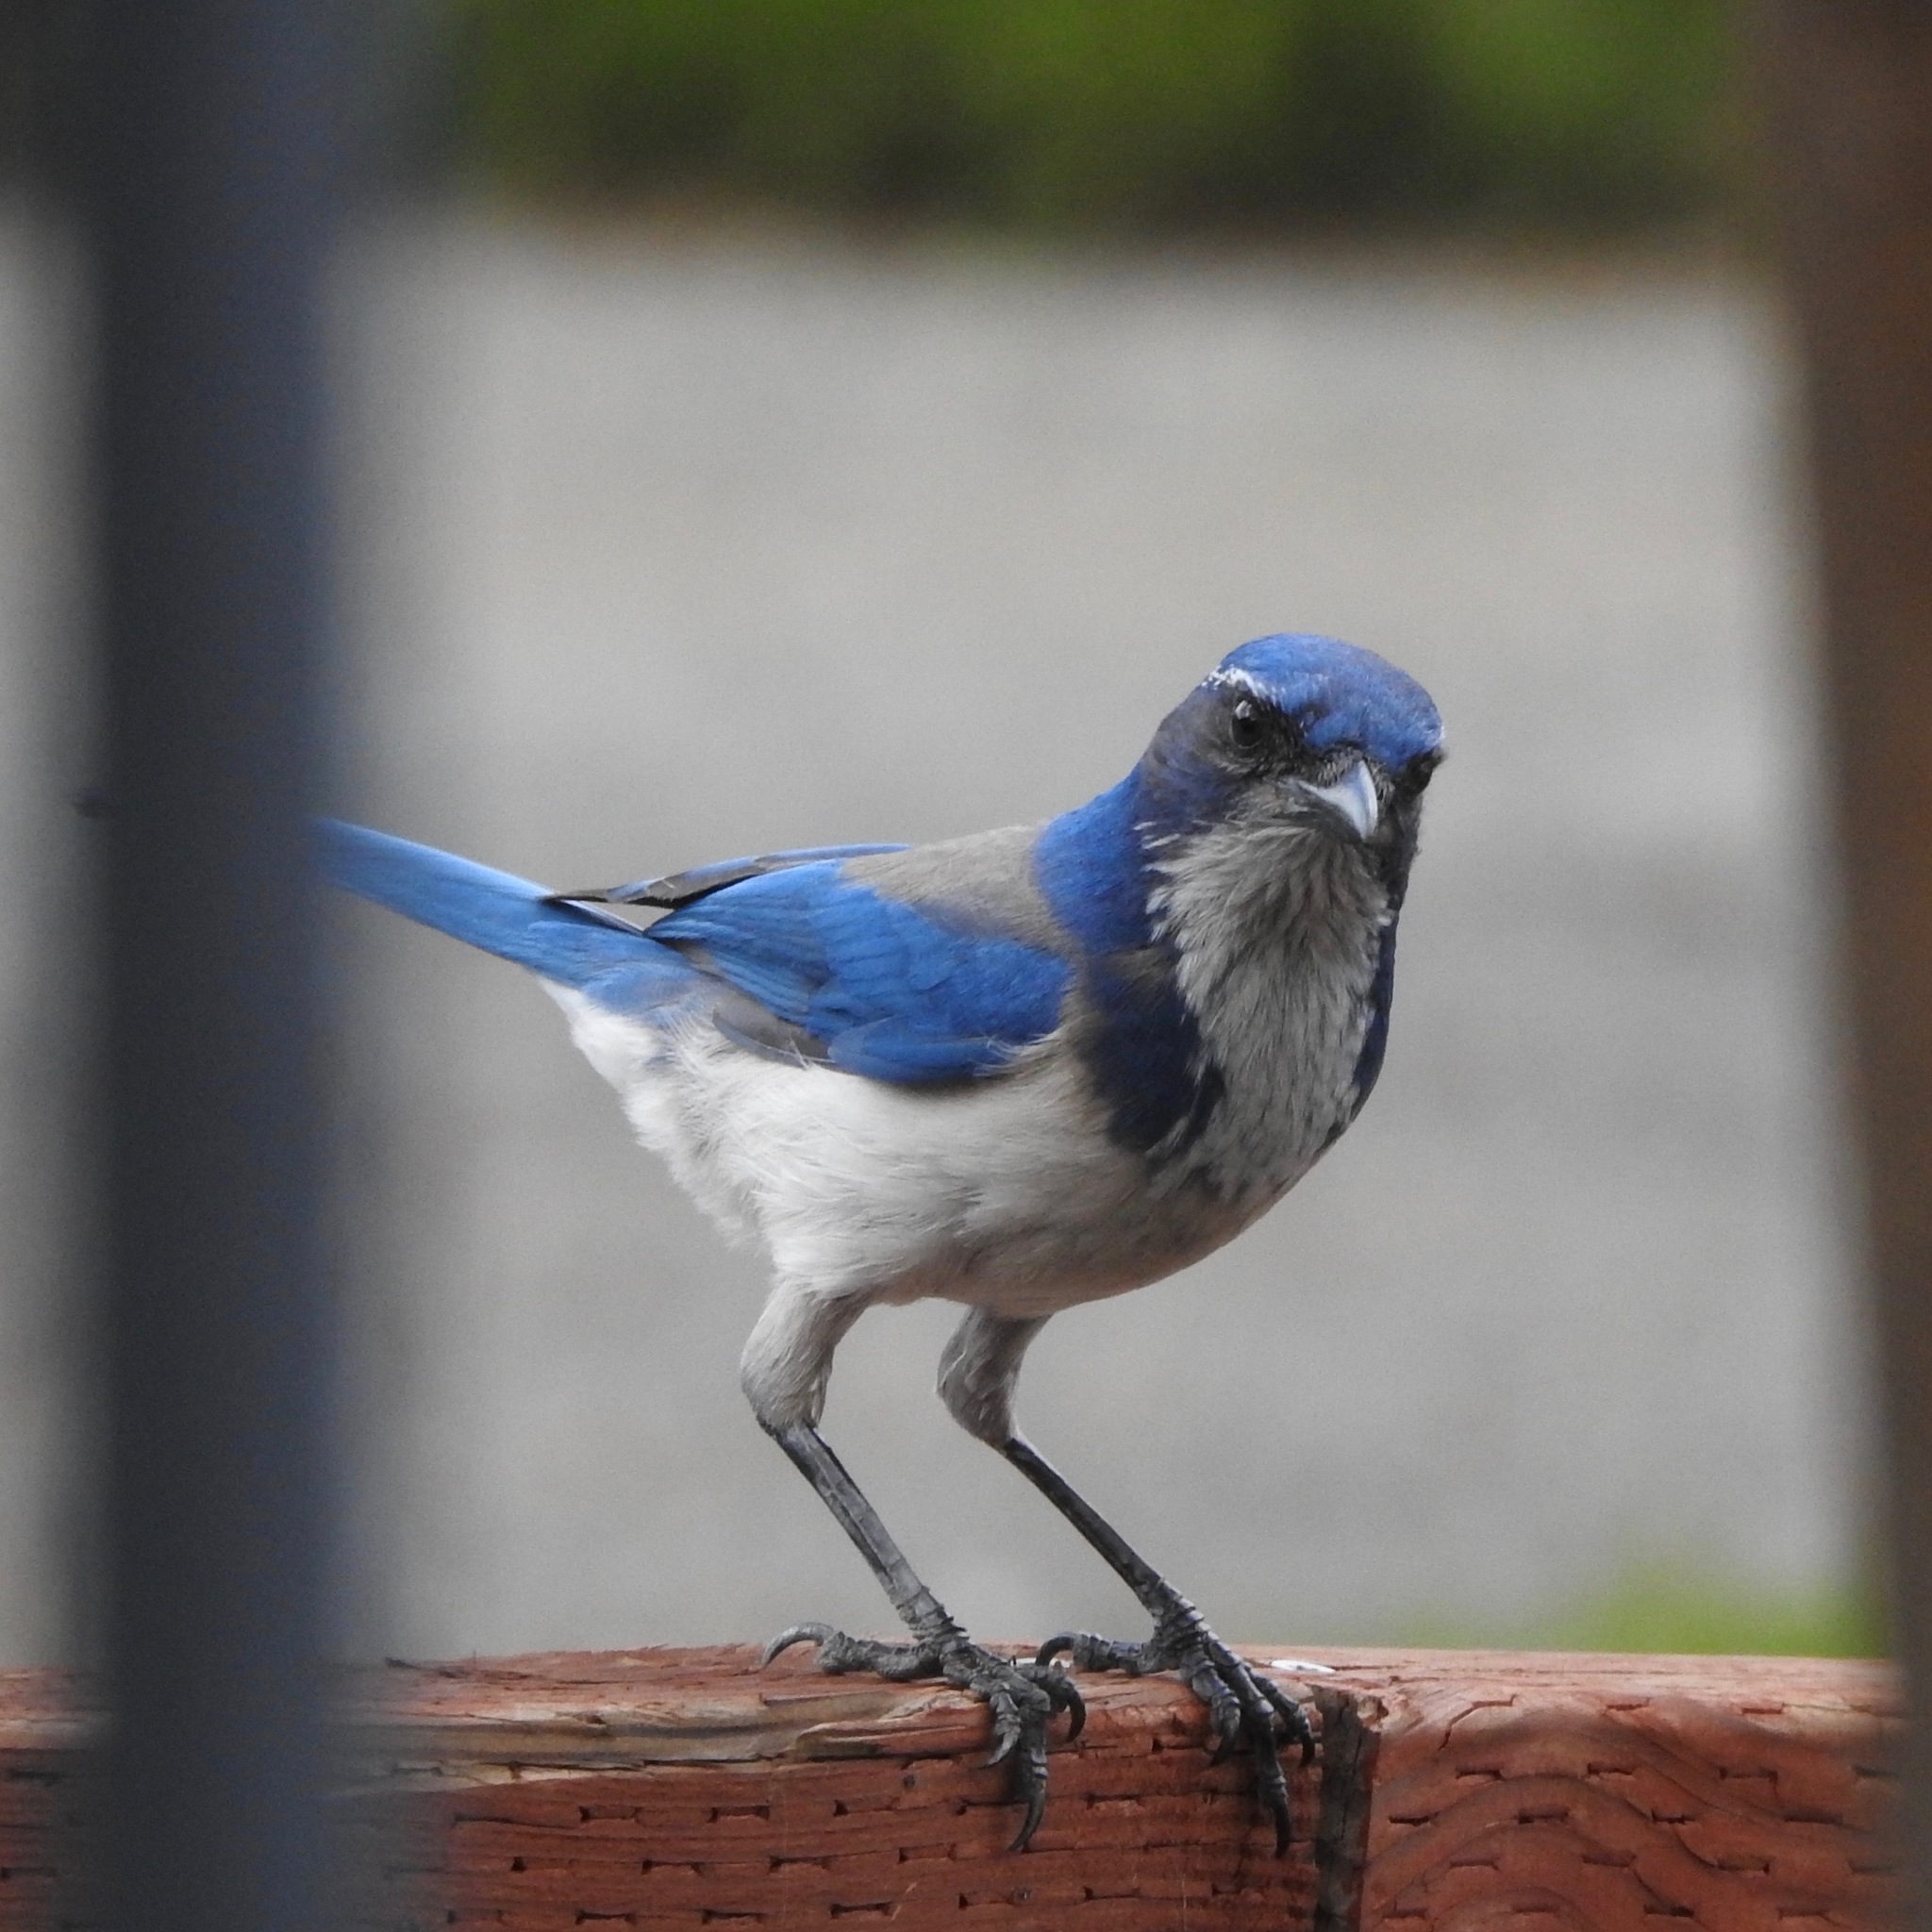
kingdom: Animalia
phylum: Chordata
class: Aves
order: Passeriformes
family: Corvidae
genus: Aphelocoma
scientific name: Aphelocoma californica
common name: California scrub-jay
